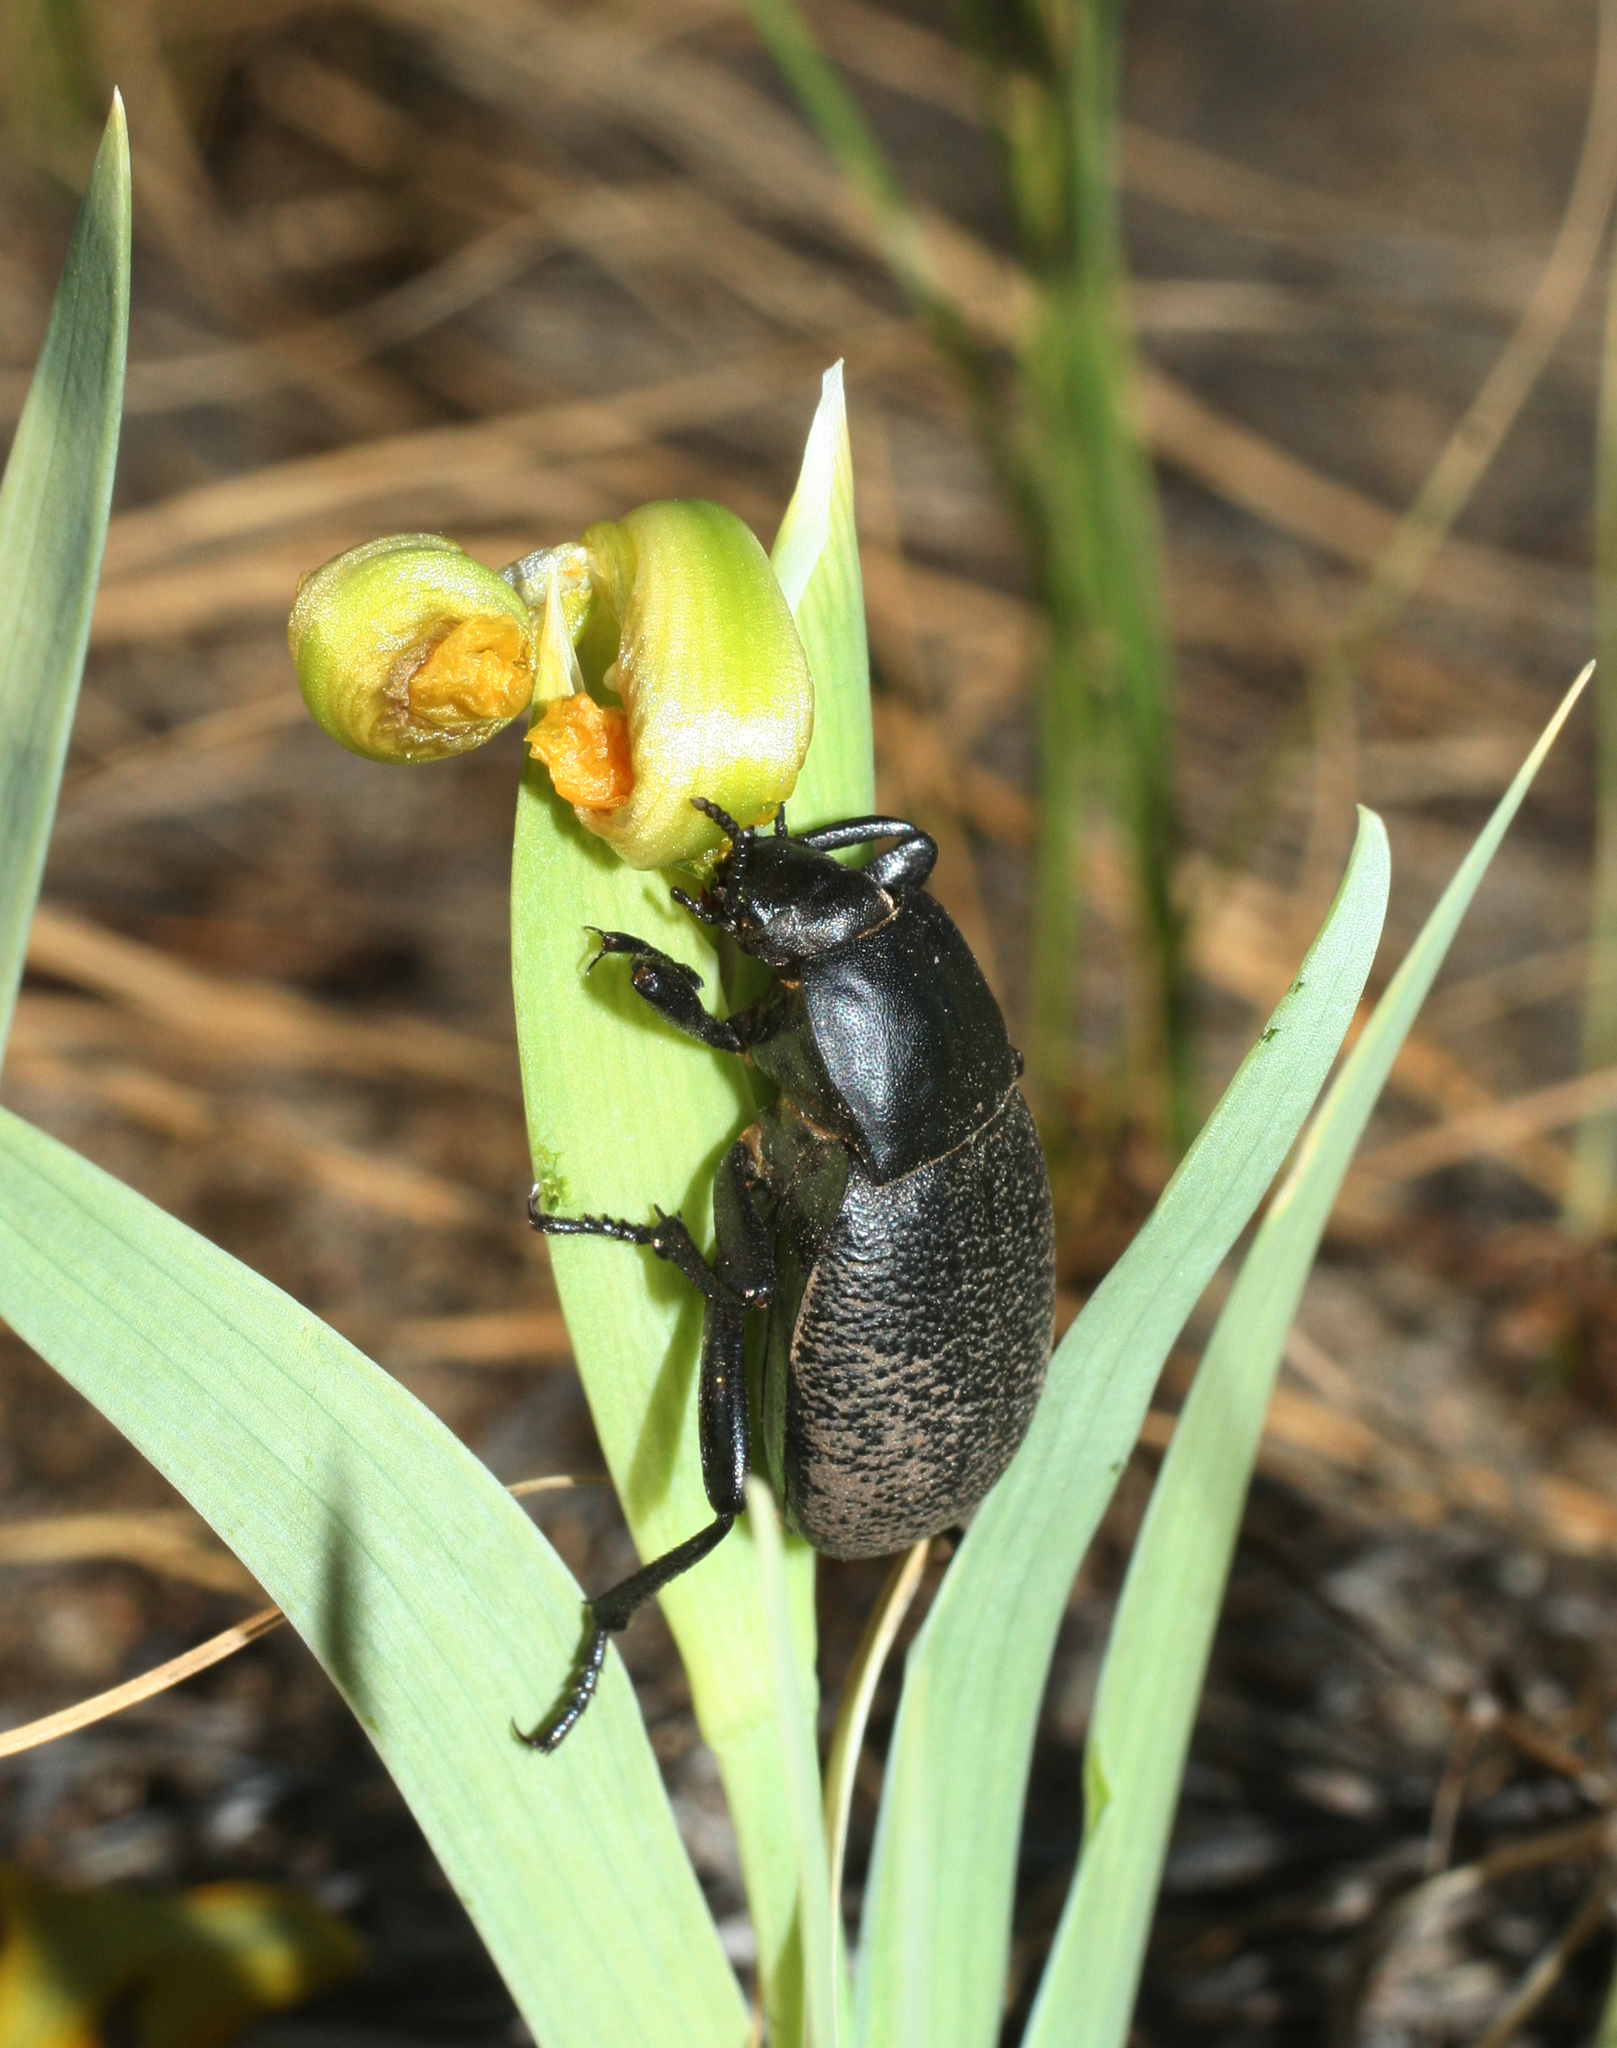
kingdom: Plantae
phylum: Tracheophyta
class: Liliopsida
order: Asparagales
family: Iridaceae
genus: Iris
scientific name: Iris humilis
